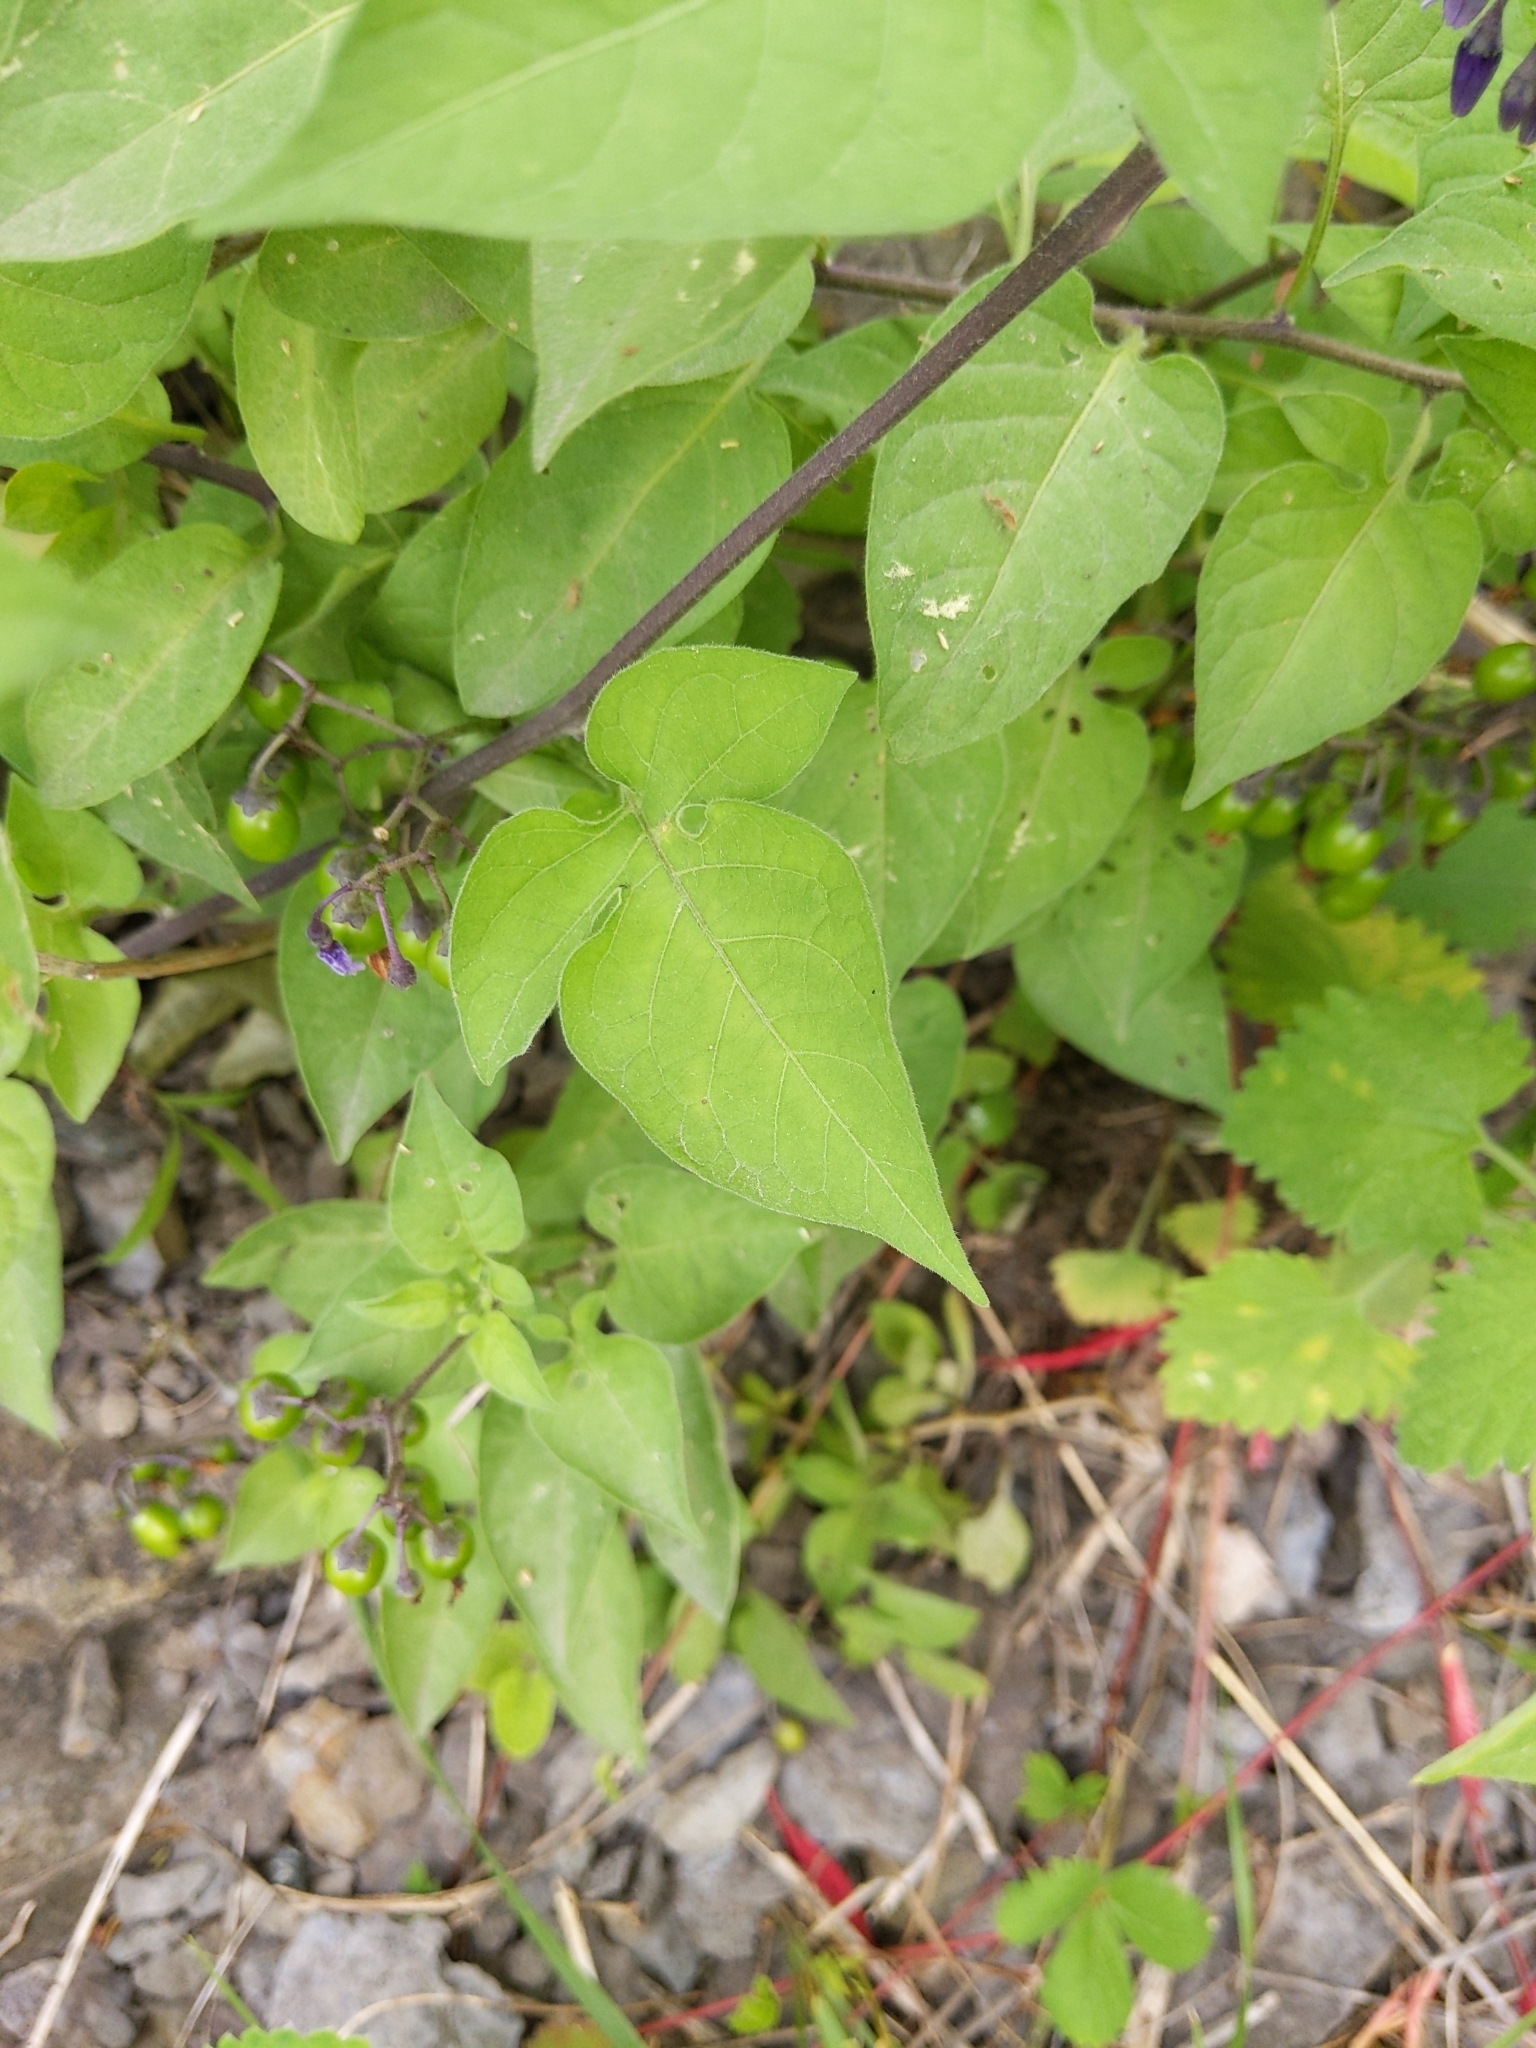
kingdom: Plantae
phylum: Tracheophyta
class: Magnoliopsida
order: Solanales
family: Solanaceae
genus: Solanum
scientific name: Solanum dulcamara
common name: Climbing nightshade
